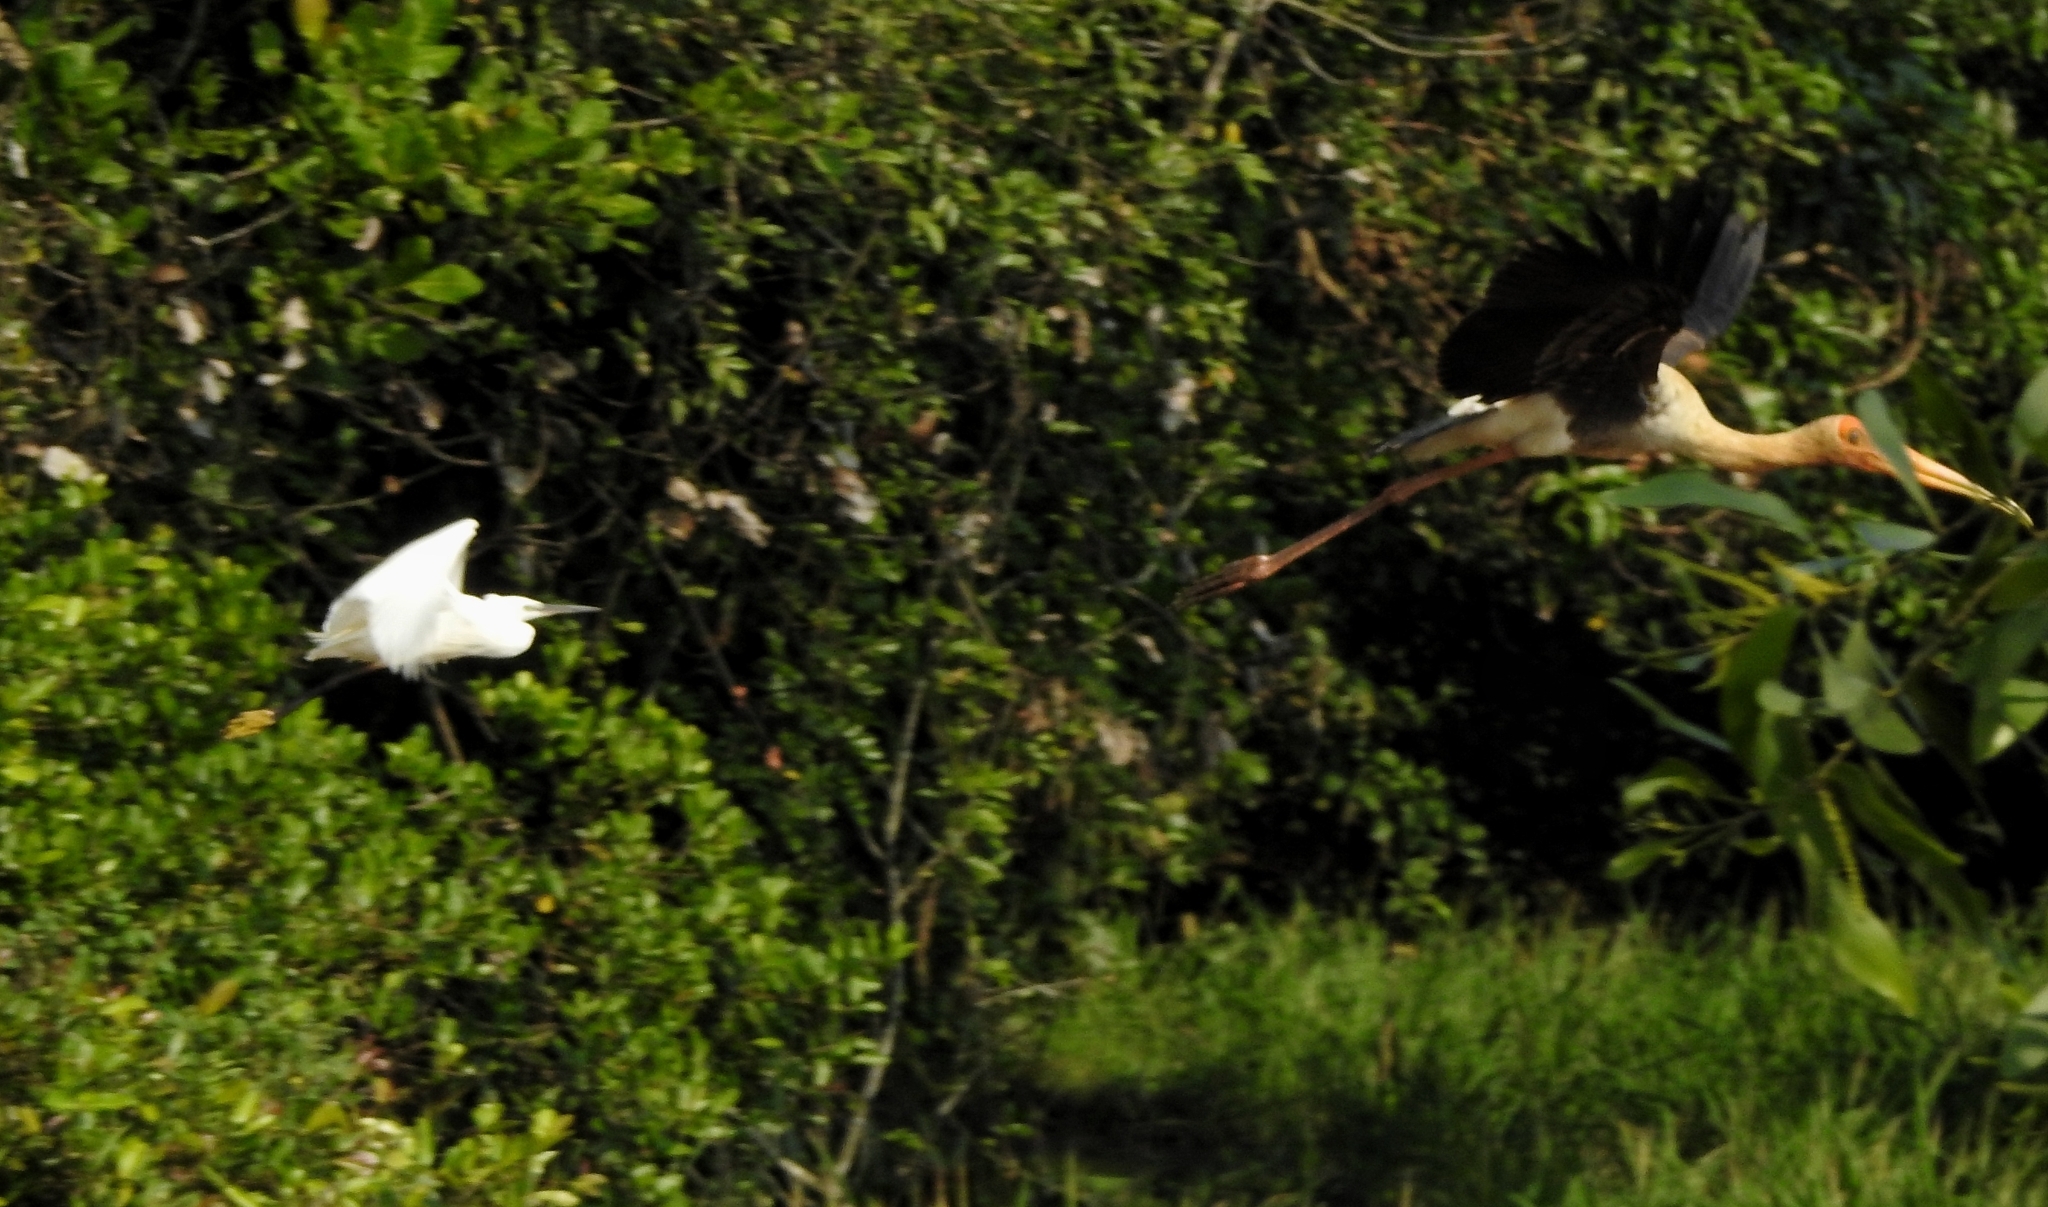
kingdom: Animalia
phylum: Chordata
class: Aves
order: Pelecaniformes
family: Ardeidae
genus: Egretta
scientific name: Egretta garzetta
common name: Little egret
